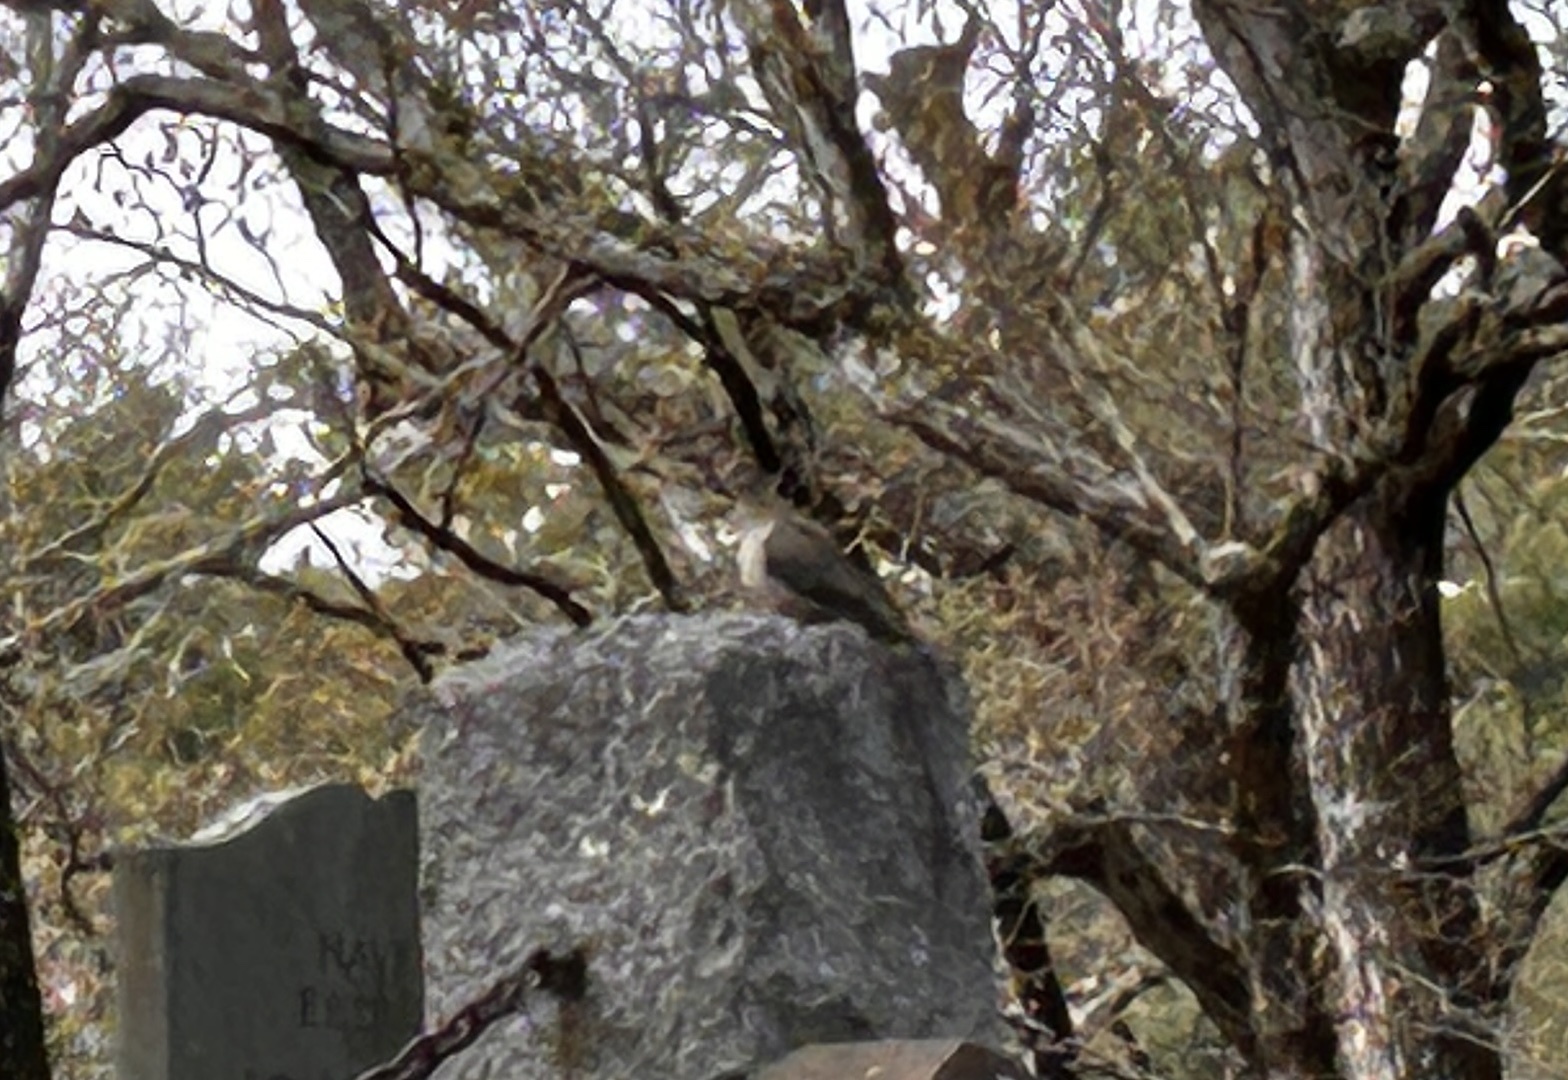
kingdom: Animalia
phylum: Chordata
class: Aves
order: Columbiformes
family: Columbidae
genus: Zenaida
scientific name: Zenaida macroura
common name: Mourning dove
